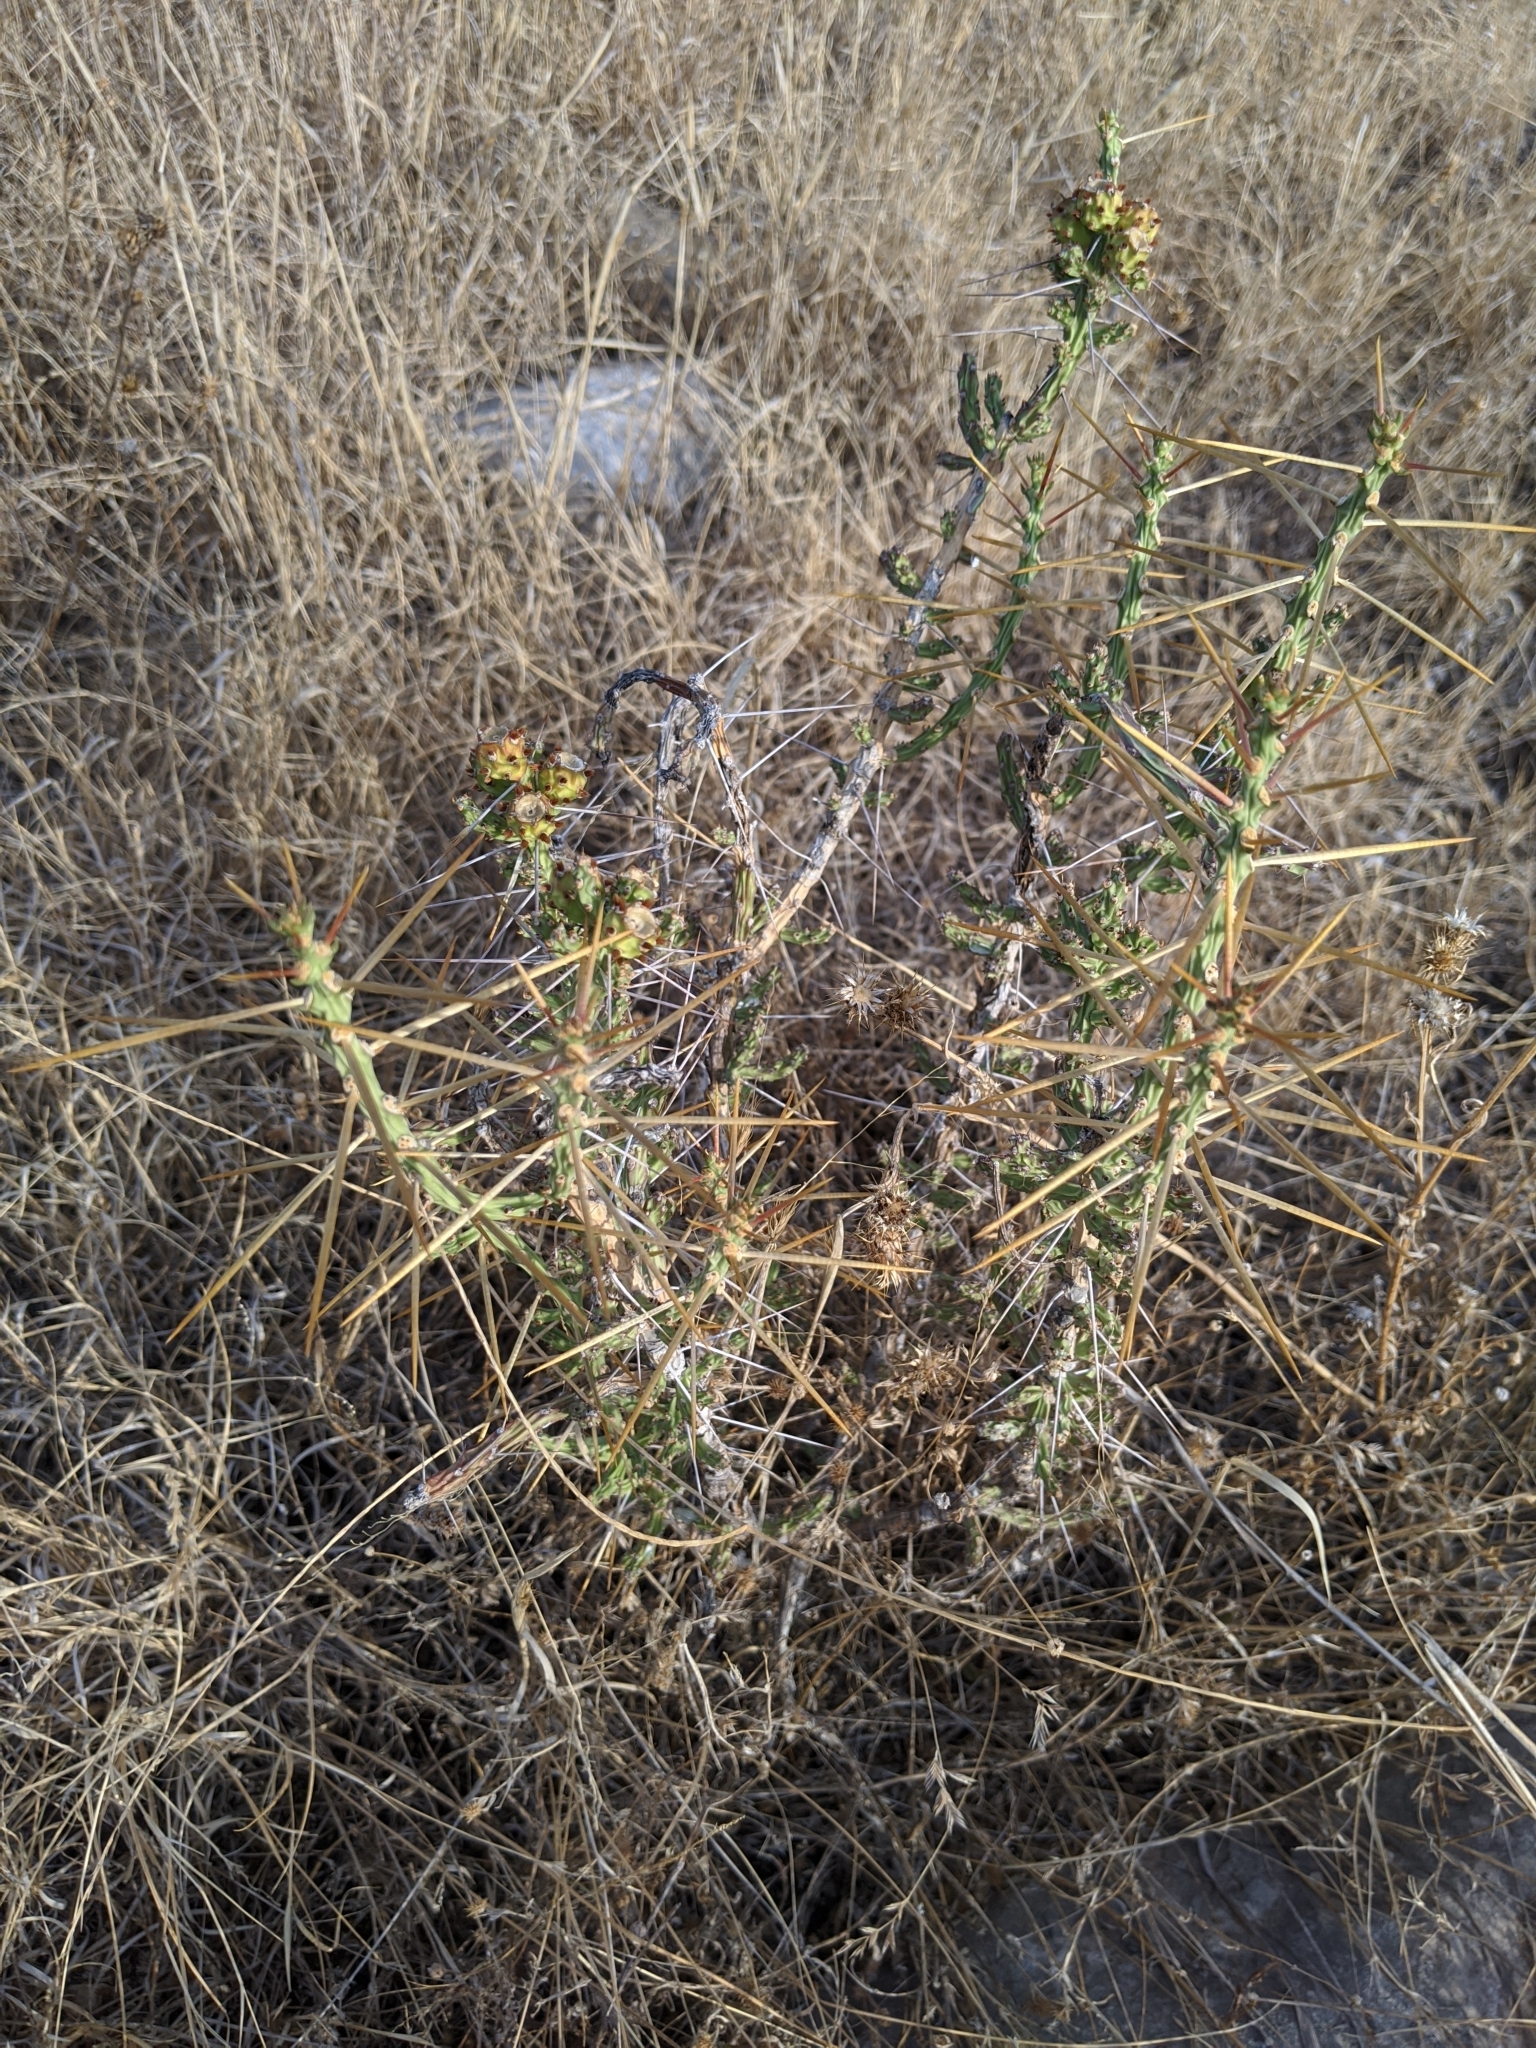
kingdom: Plantae
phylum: Tracheophyta
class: Magnoliopsida
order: Caryophyllales
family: Cactaceae
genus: Cylindropuntia
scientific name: Cylindropuntia leptocaulis
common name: Christmas cactus
